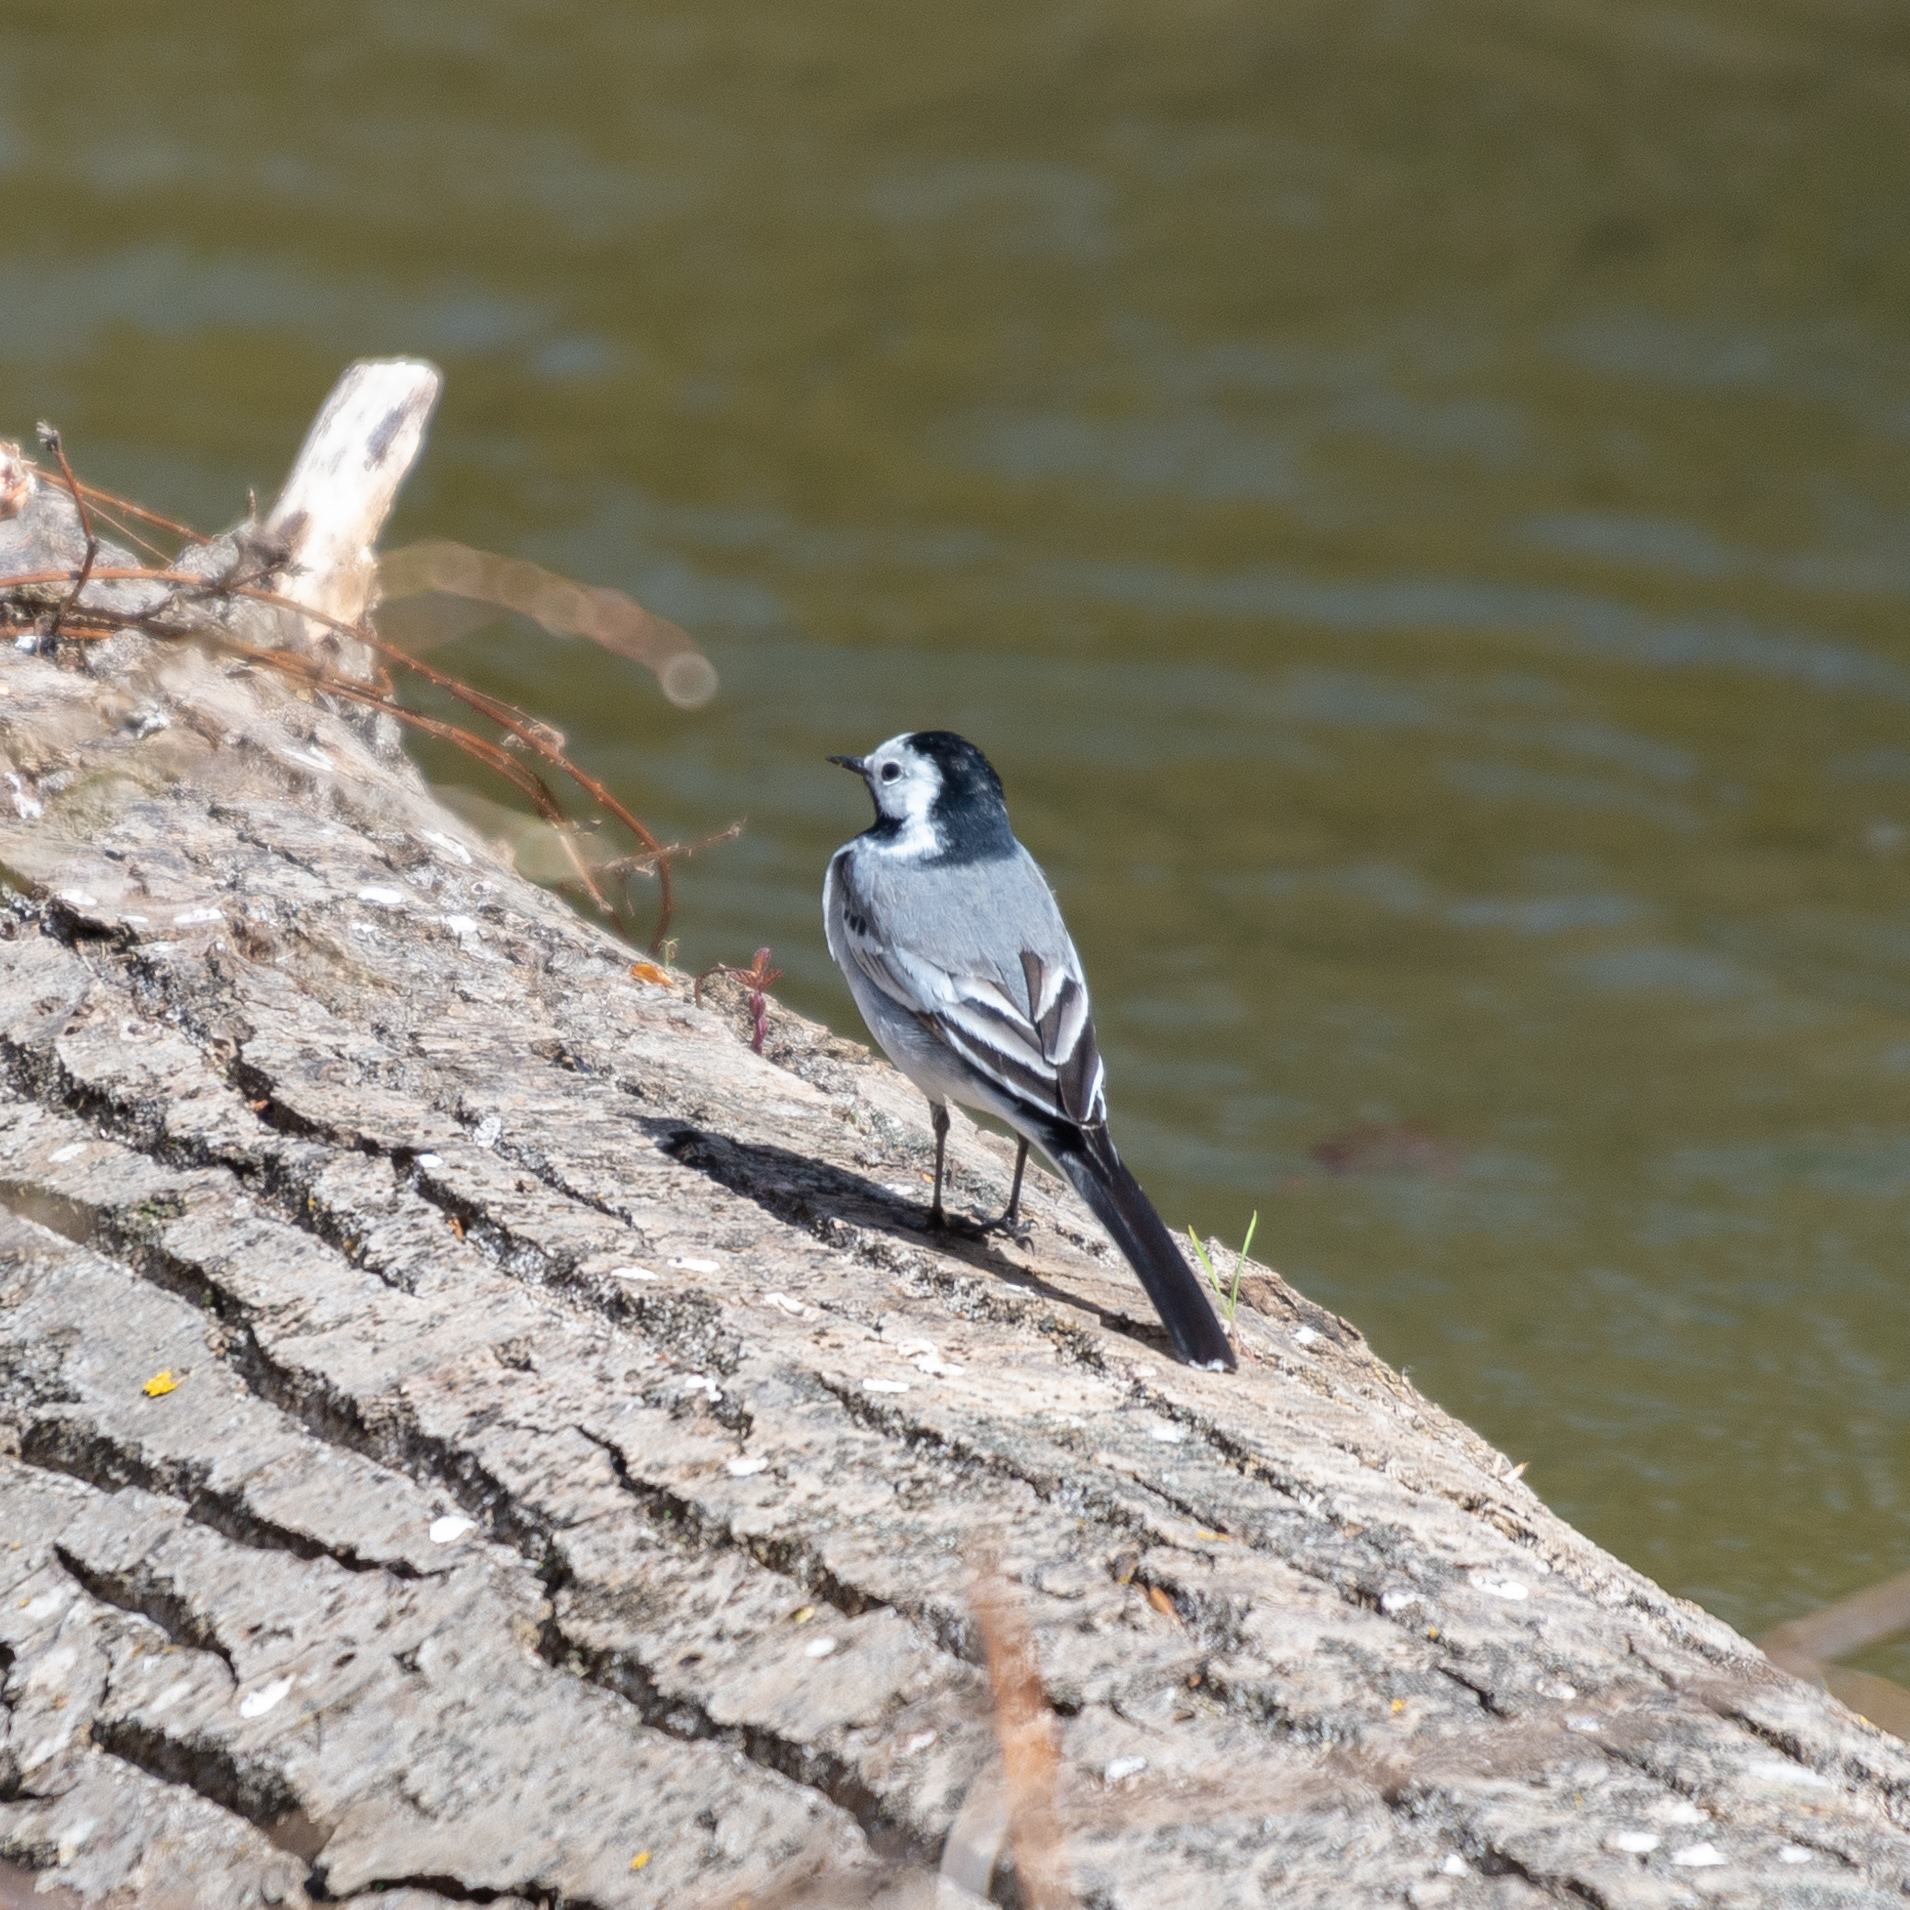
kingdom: Animalia
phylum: Chordata
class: Aves
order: Passeriformes
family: Motacillidae
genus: Motacilla
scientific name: Motacilla alba
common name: White wagtail
